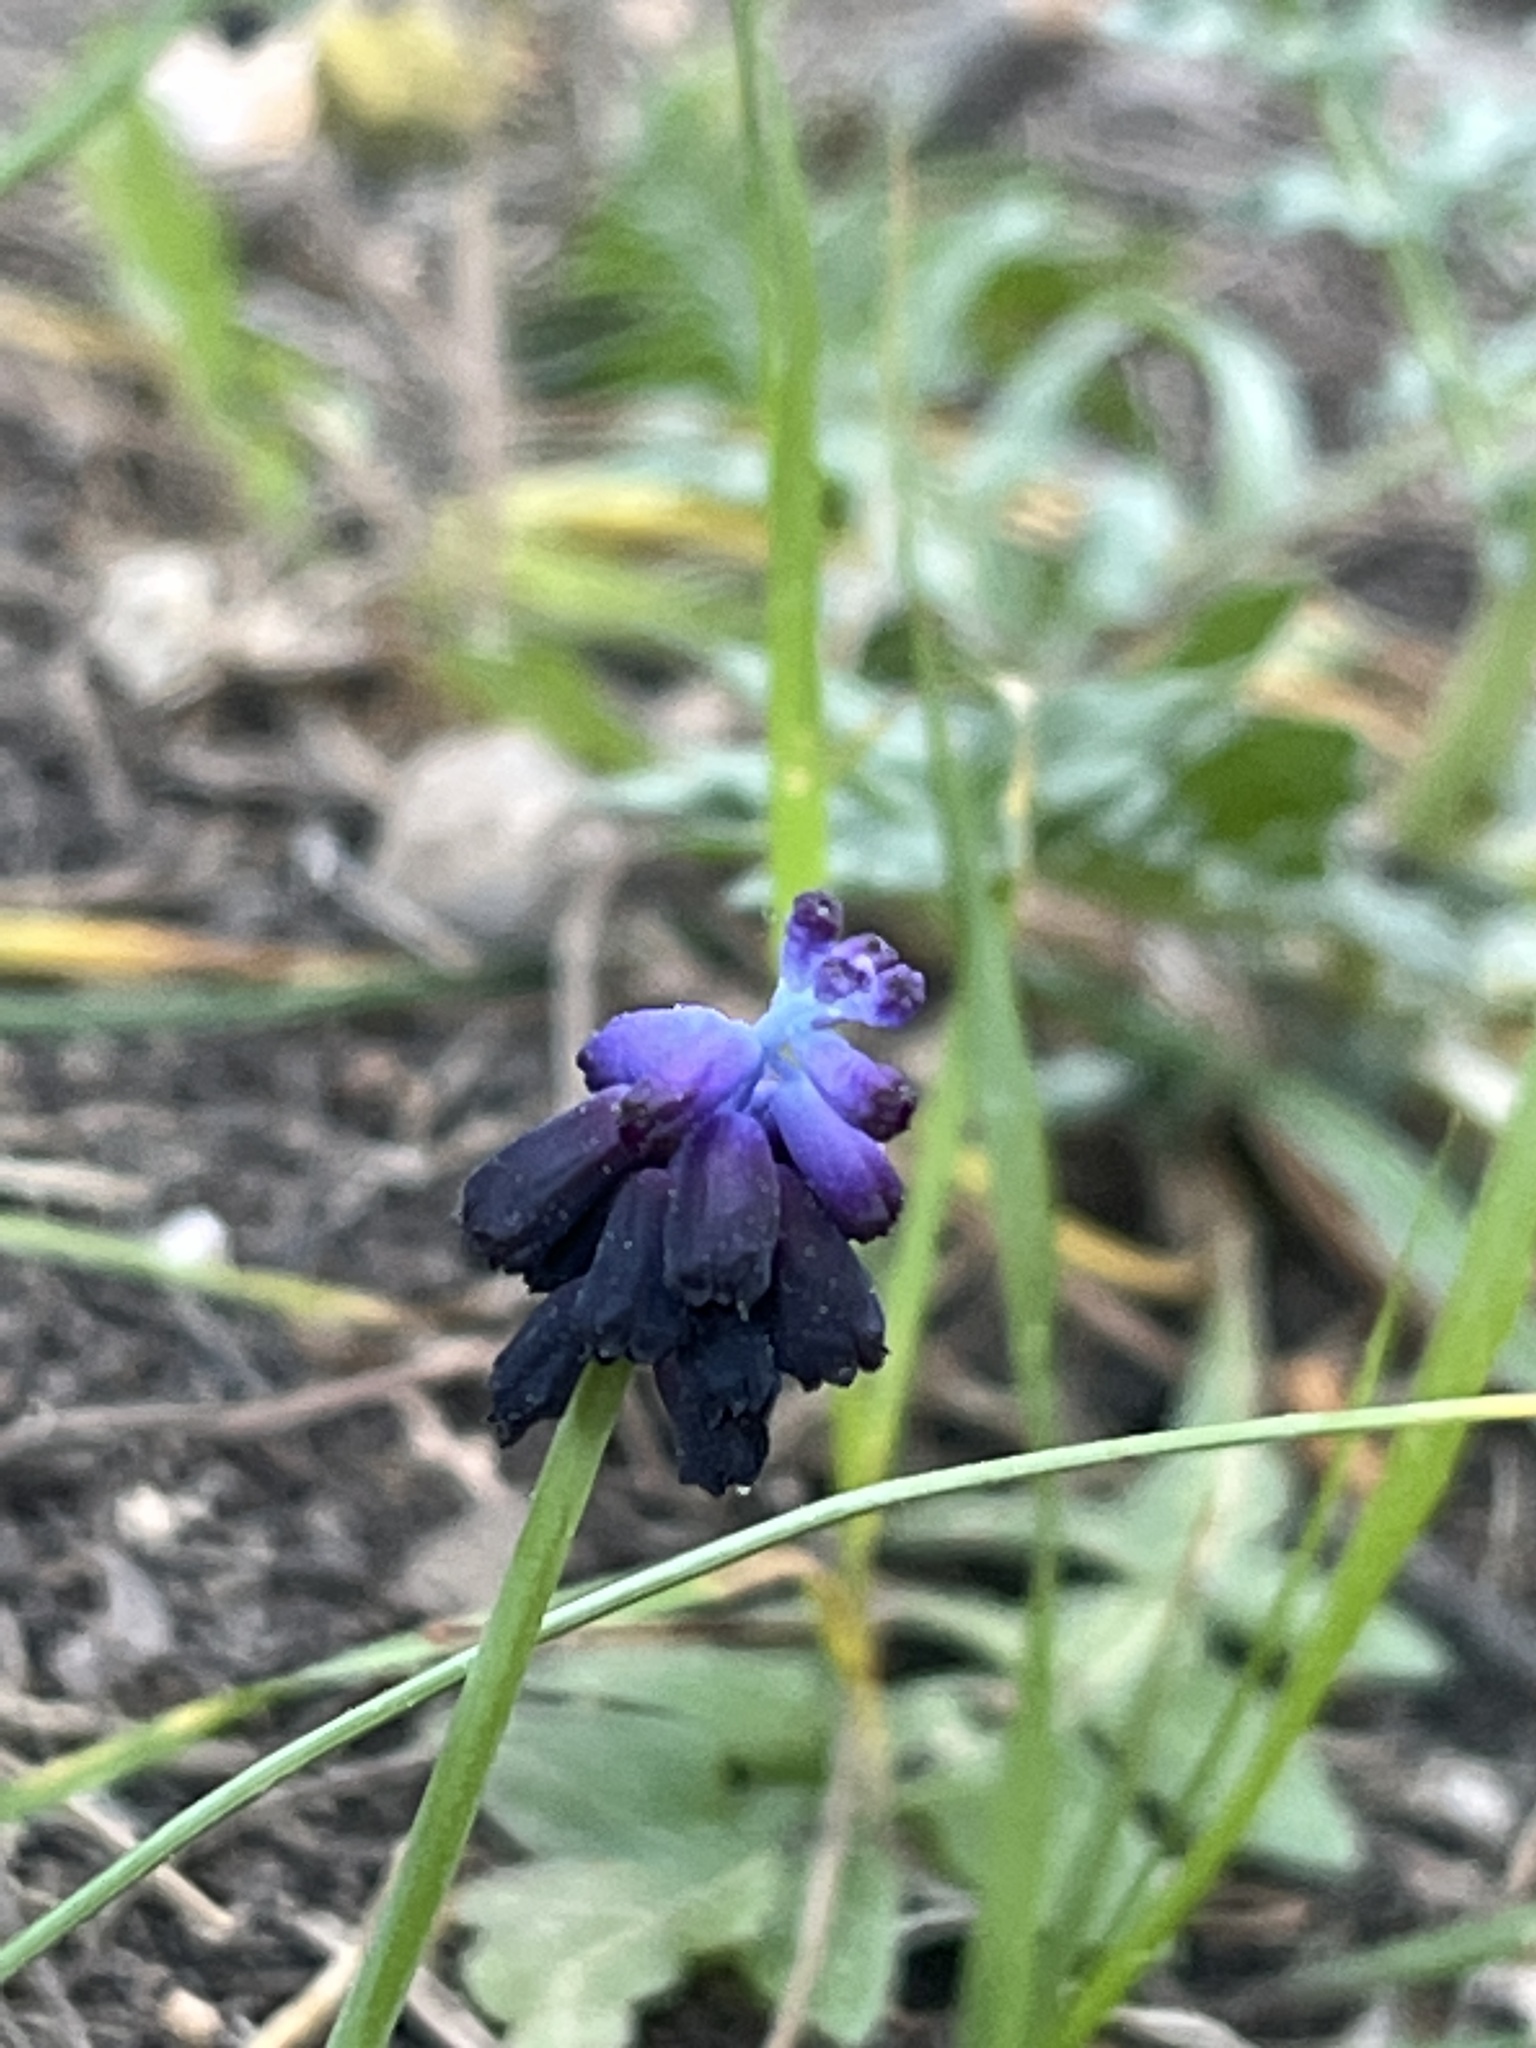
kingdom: Plantae
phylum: Tracheophyta
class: Liliopsida
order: Asparagales
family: Asparagaceae
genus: Muscari
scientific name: Muscari commutatum
